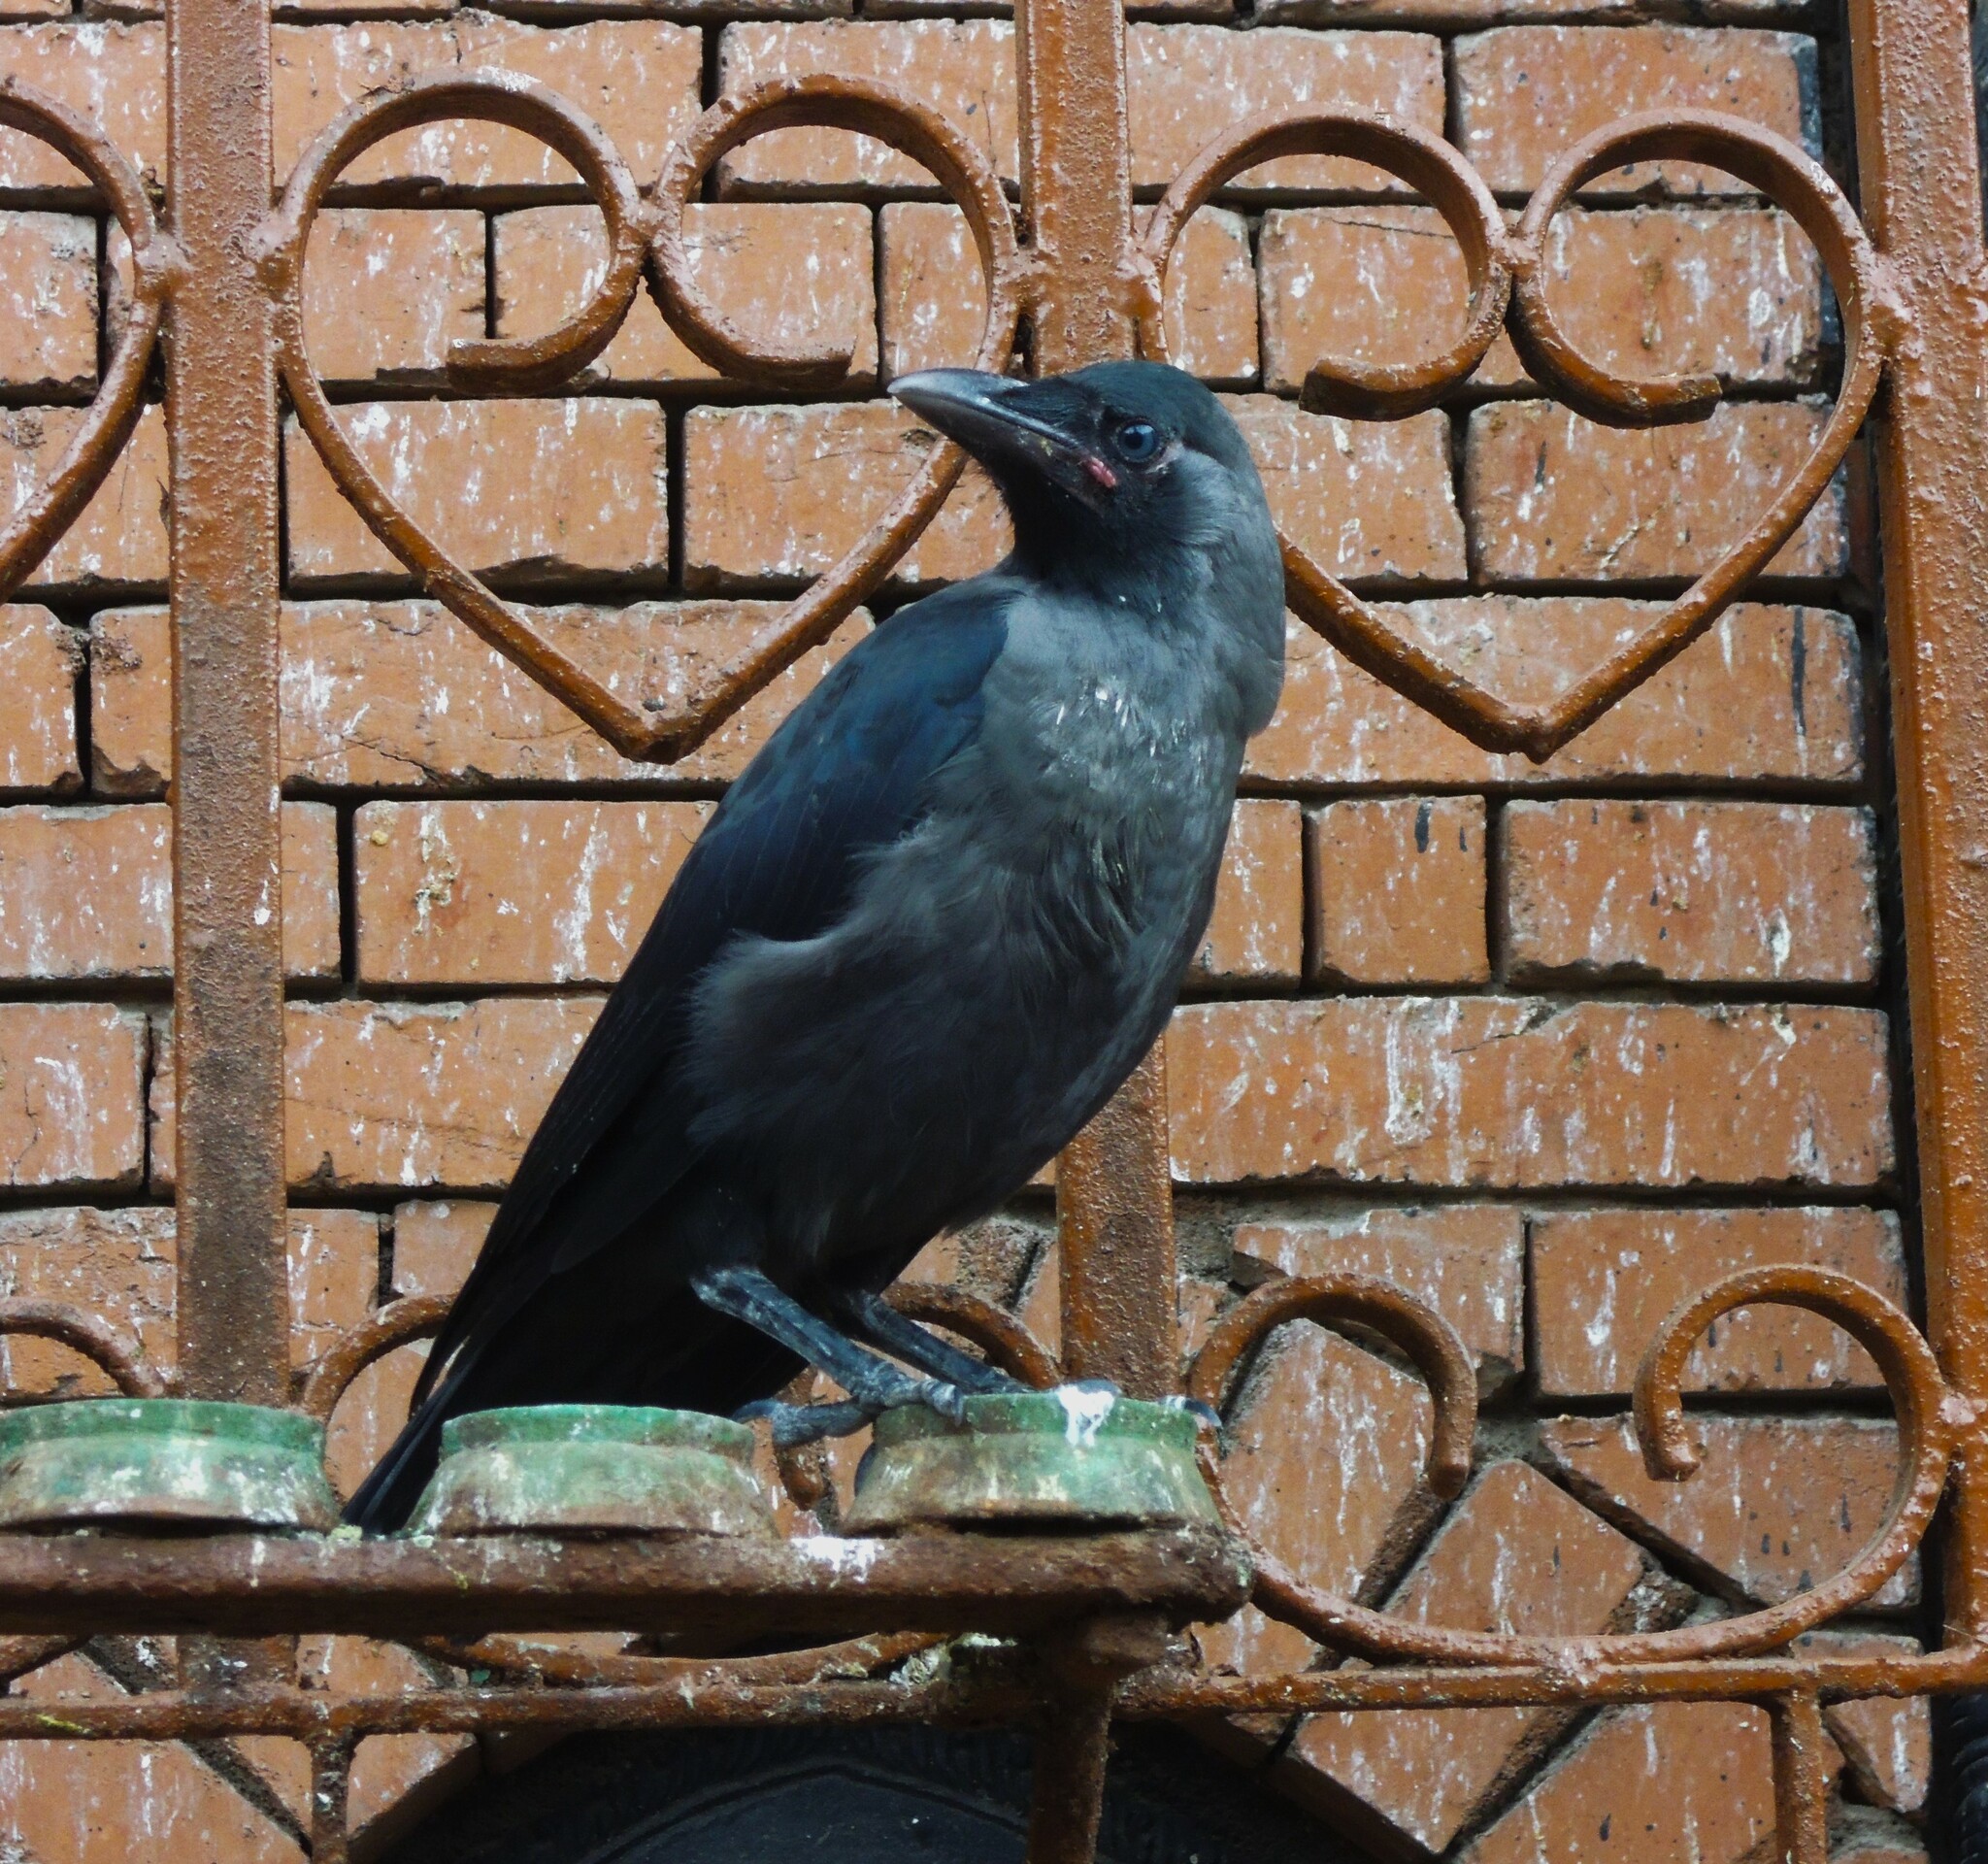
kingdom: Animalia
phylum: Chordata
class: Aves
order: Passeriformes
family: Corvidae
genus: Corvus
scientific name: Corvus splendens
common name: House crow
